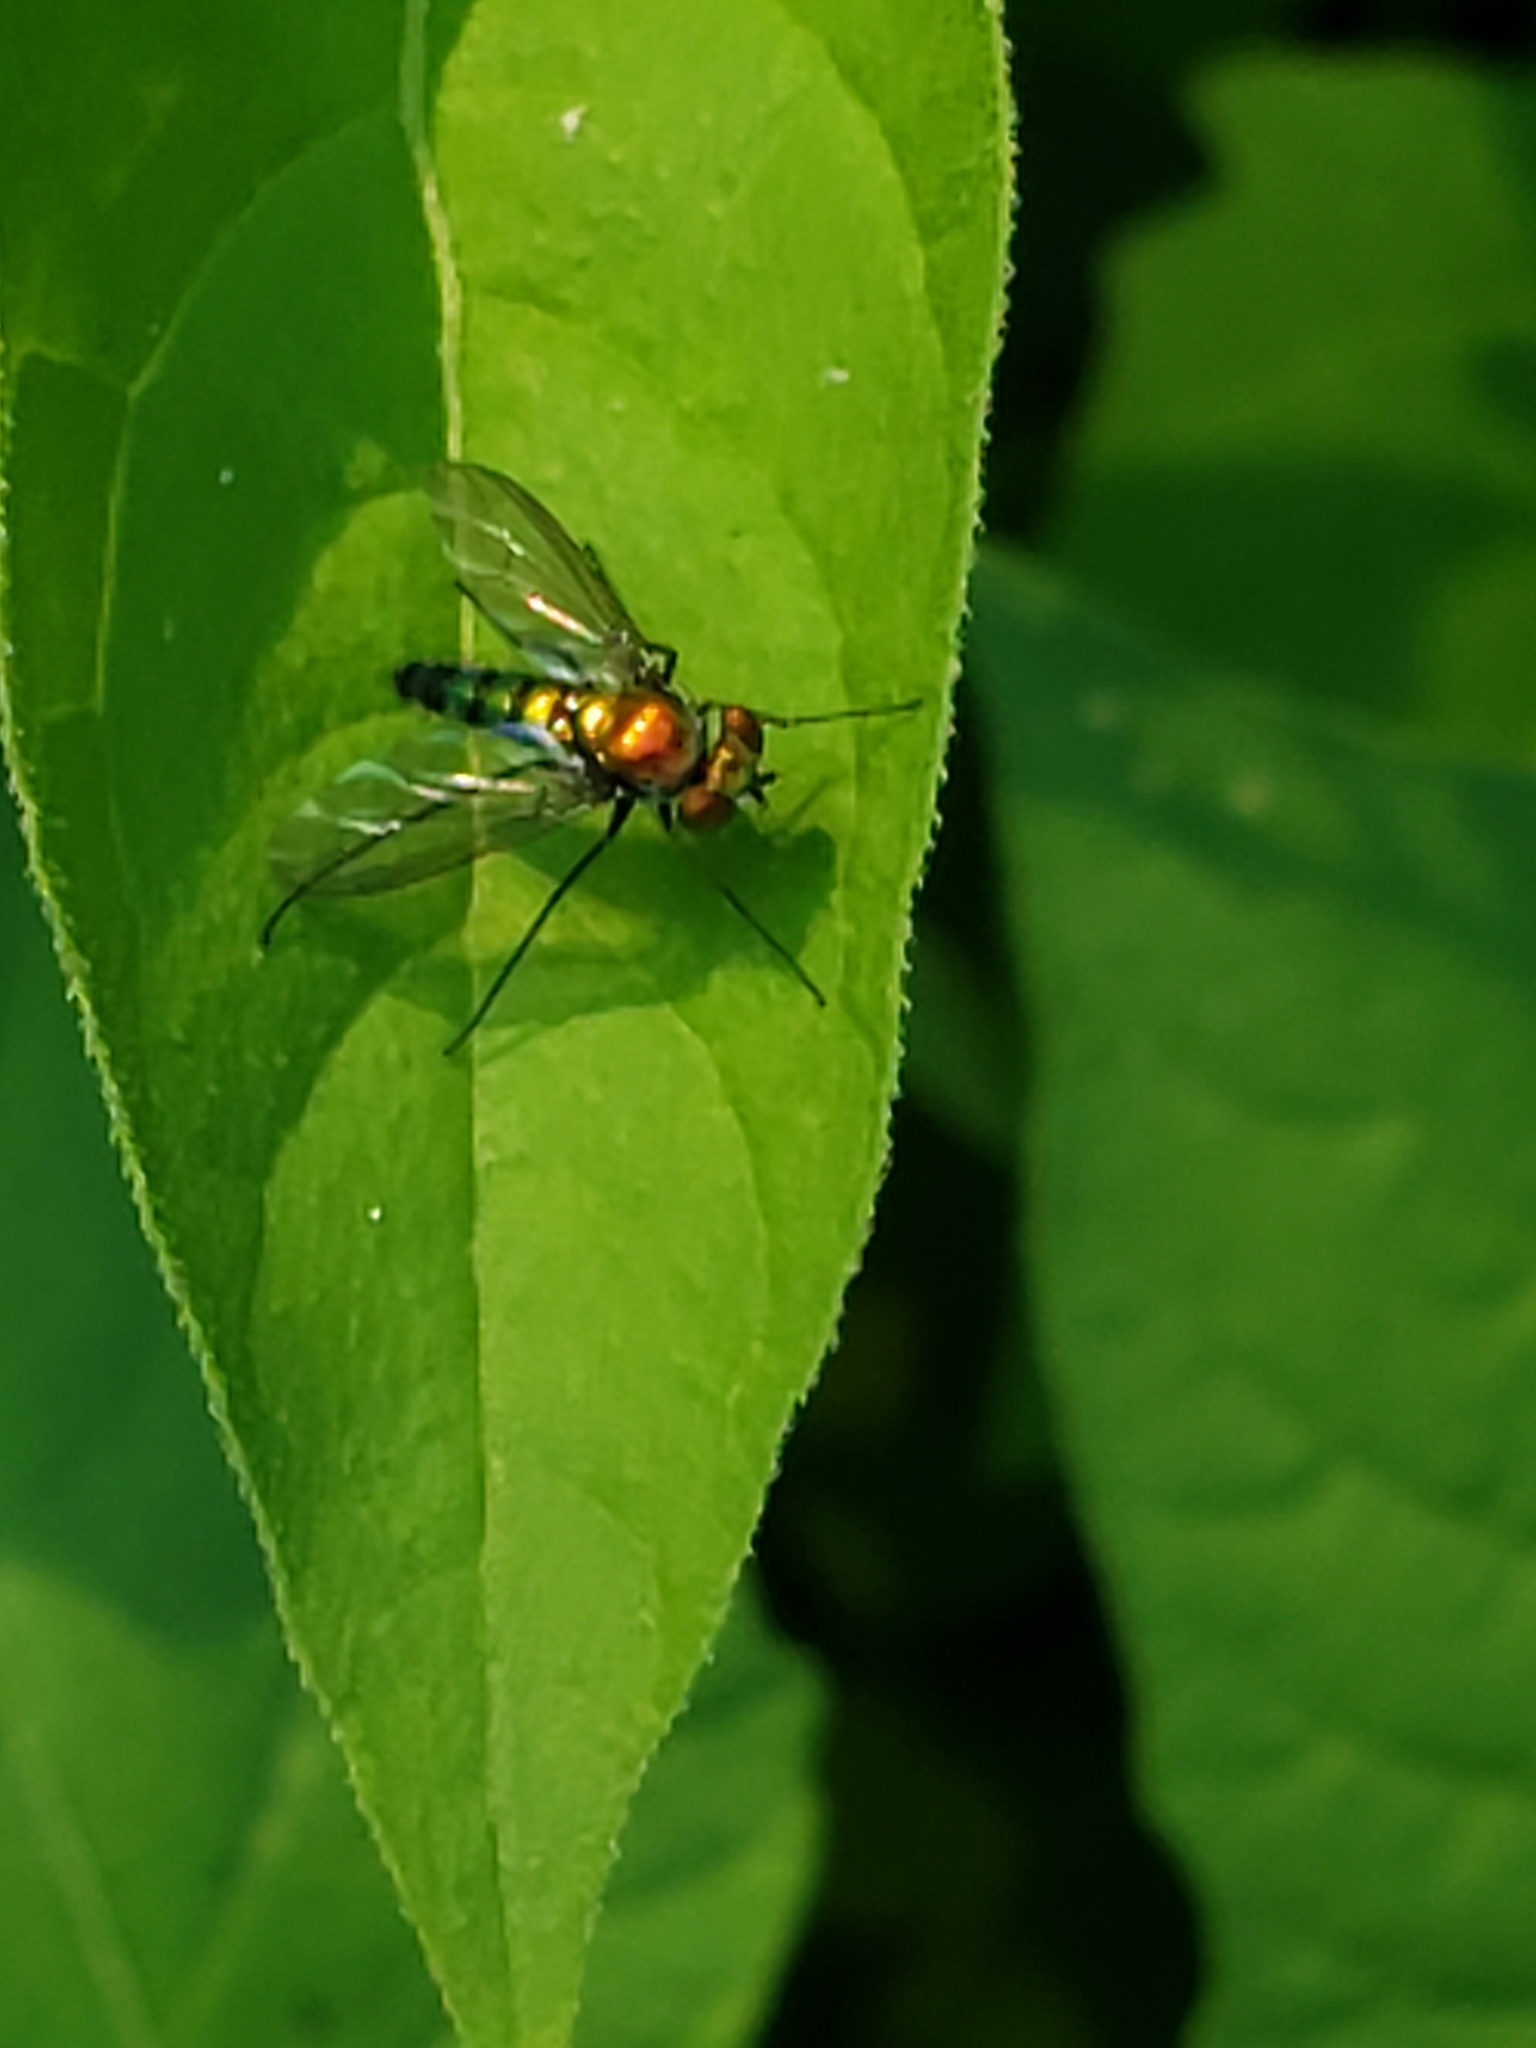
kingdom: Animalia
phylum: Arthropoda
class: Insecta
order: Diptera
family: Dolichopodidae
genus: Condylostylus
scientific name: Condylostylus longicornis
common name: Long-legged fly
